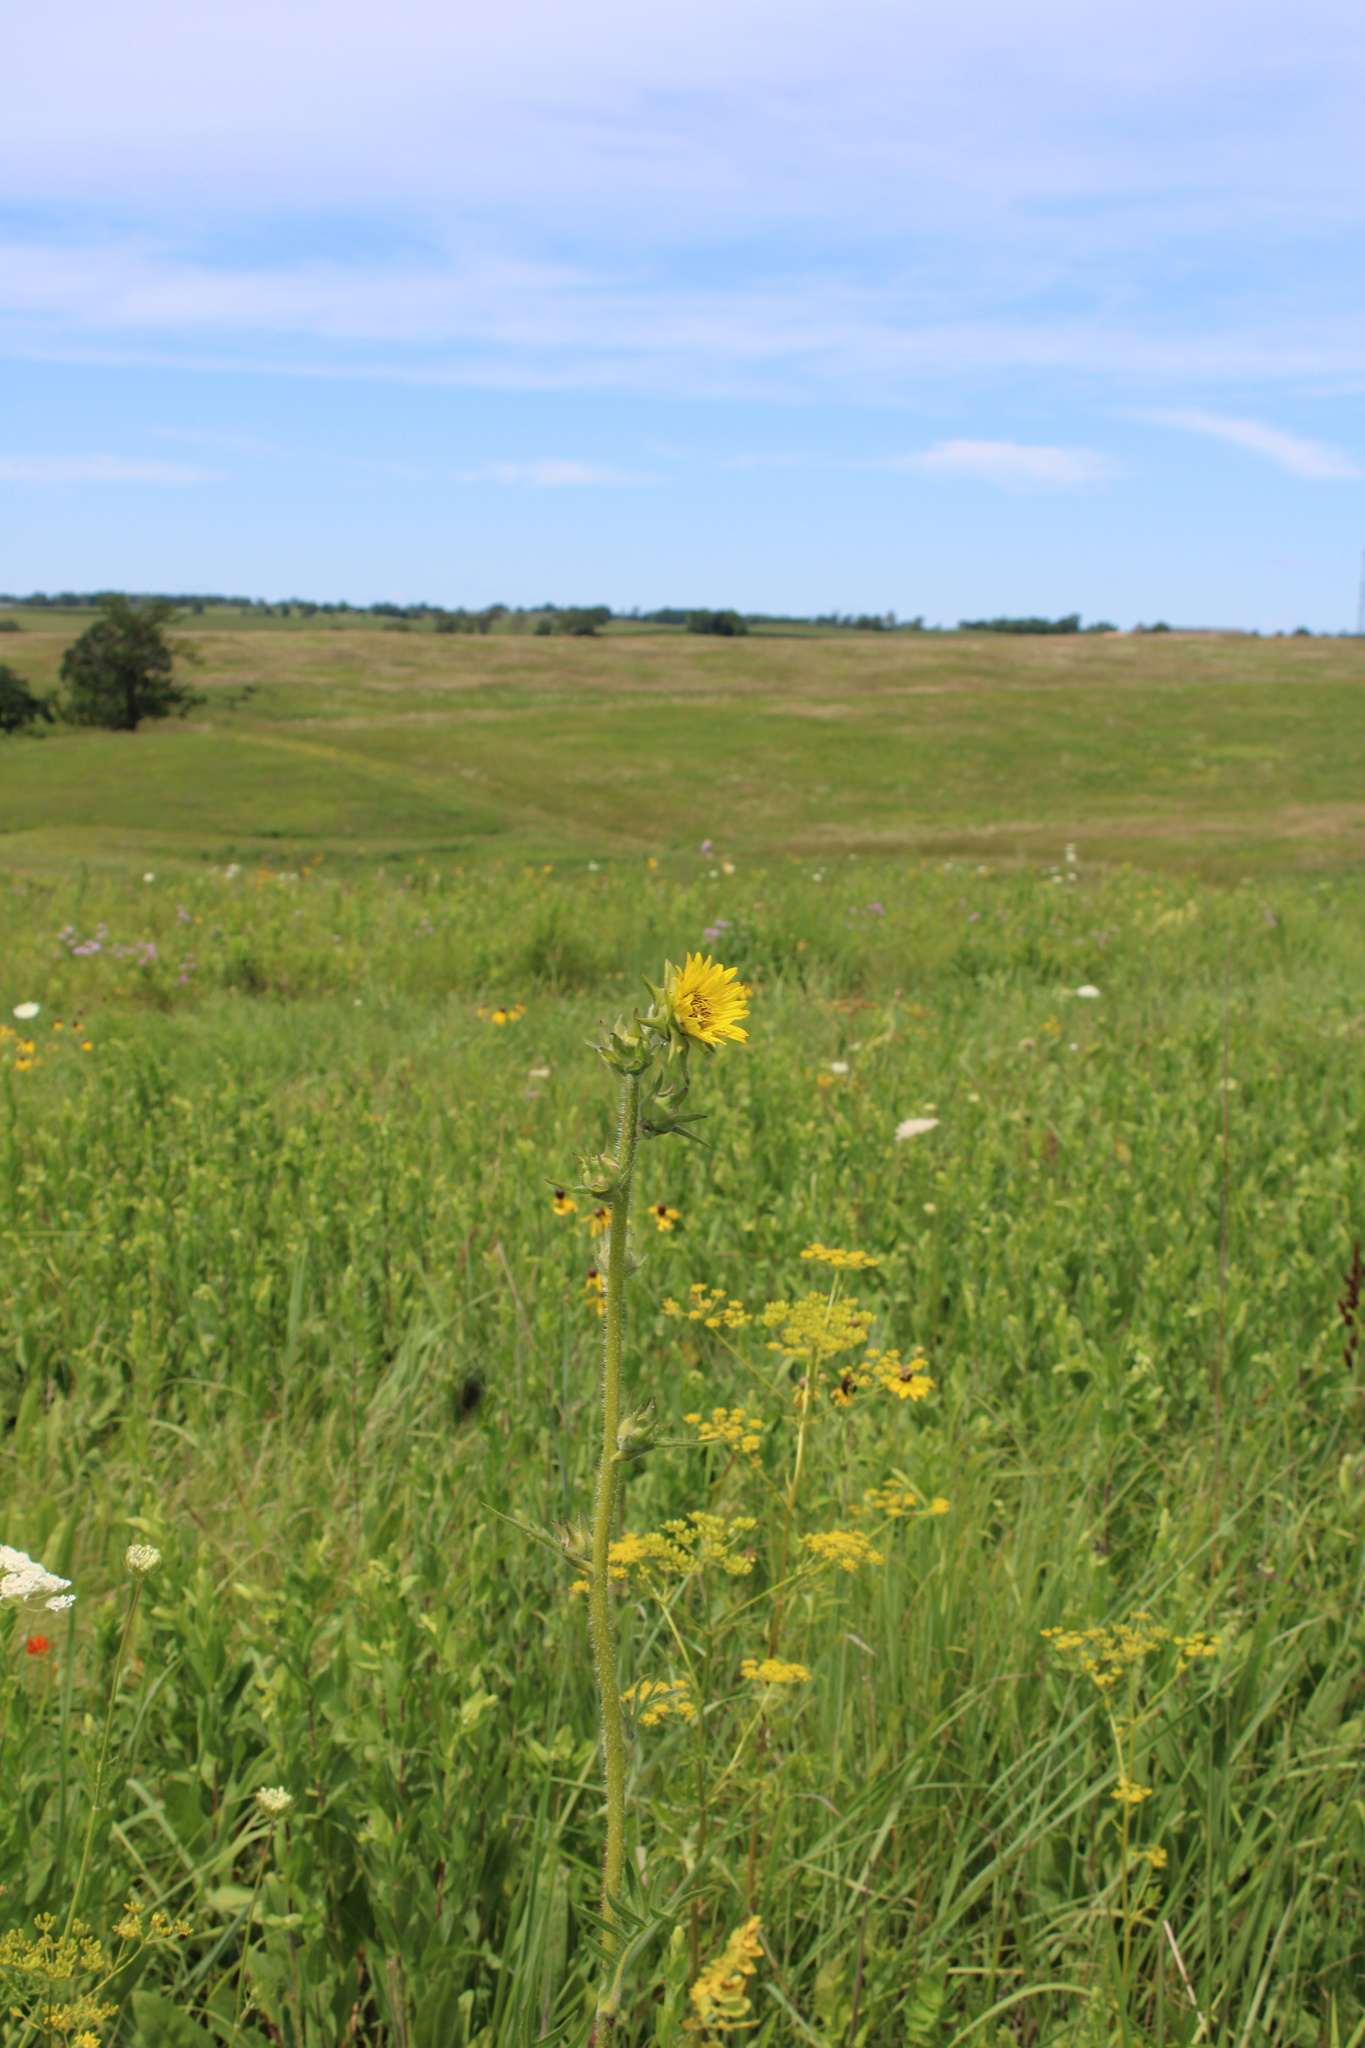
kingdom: Plantae
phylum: Tracheophyta
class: Magnoliopsida
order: Asterales
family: Asteraceae
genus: Silphium
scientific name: Silphium laciniatum
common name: Polarplant
